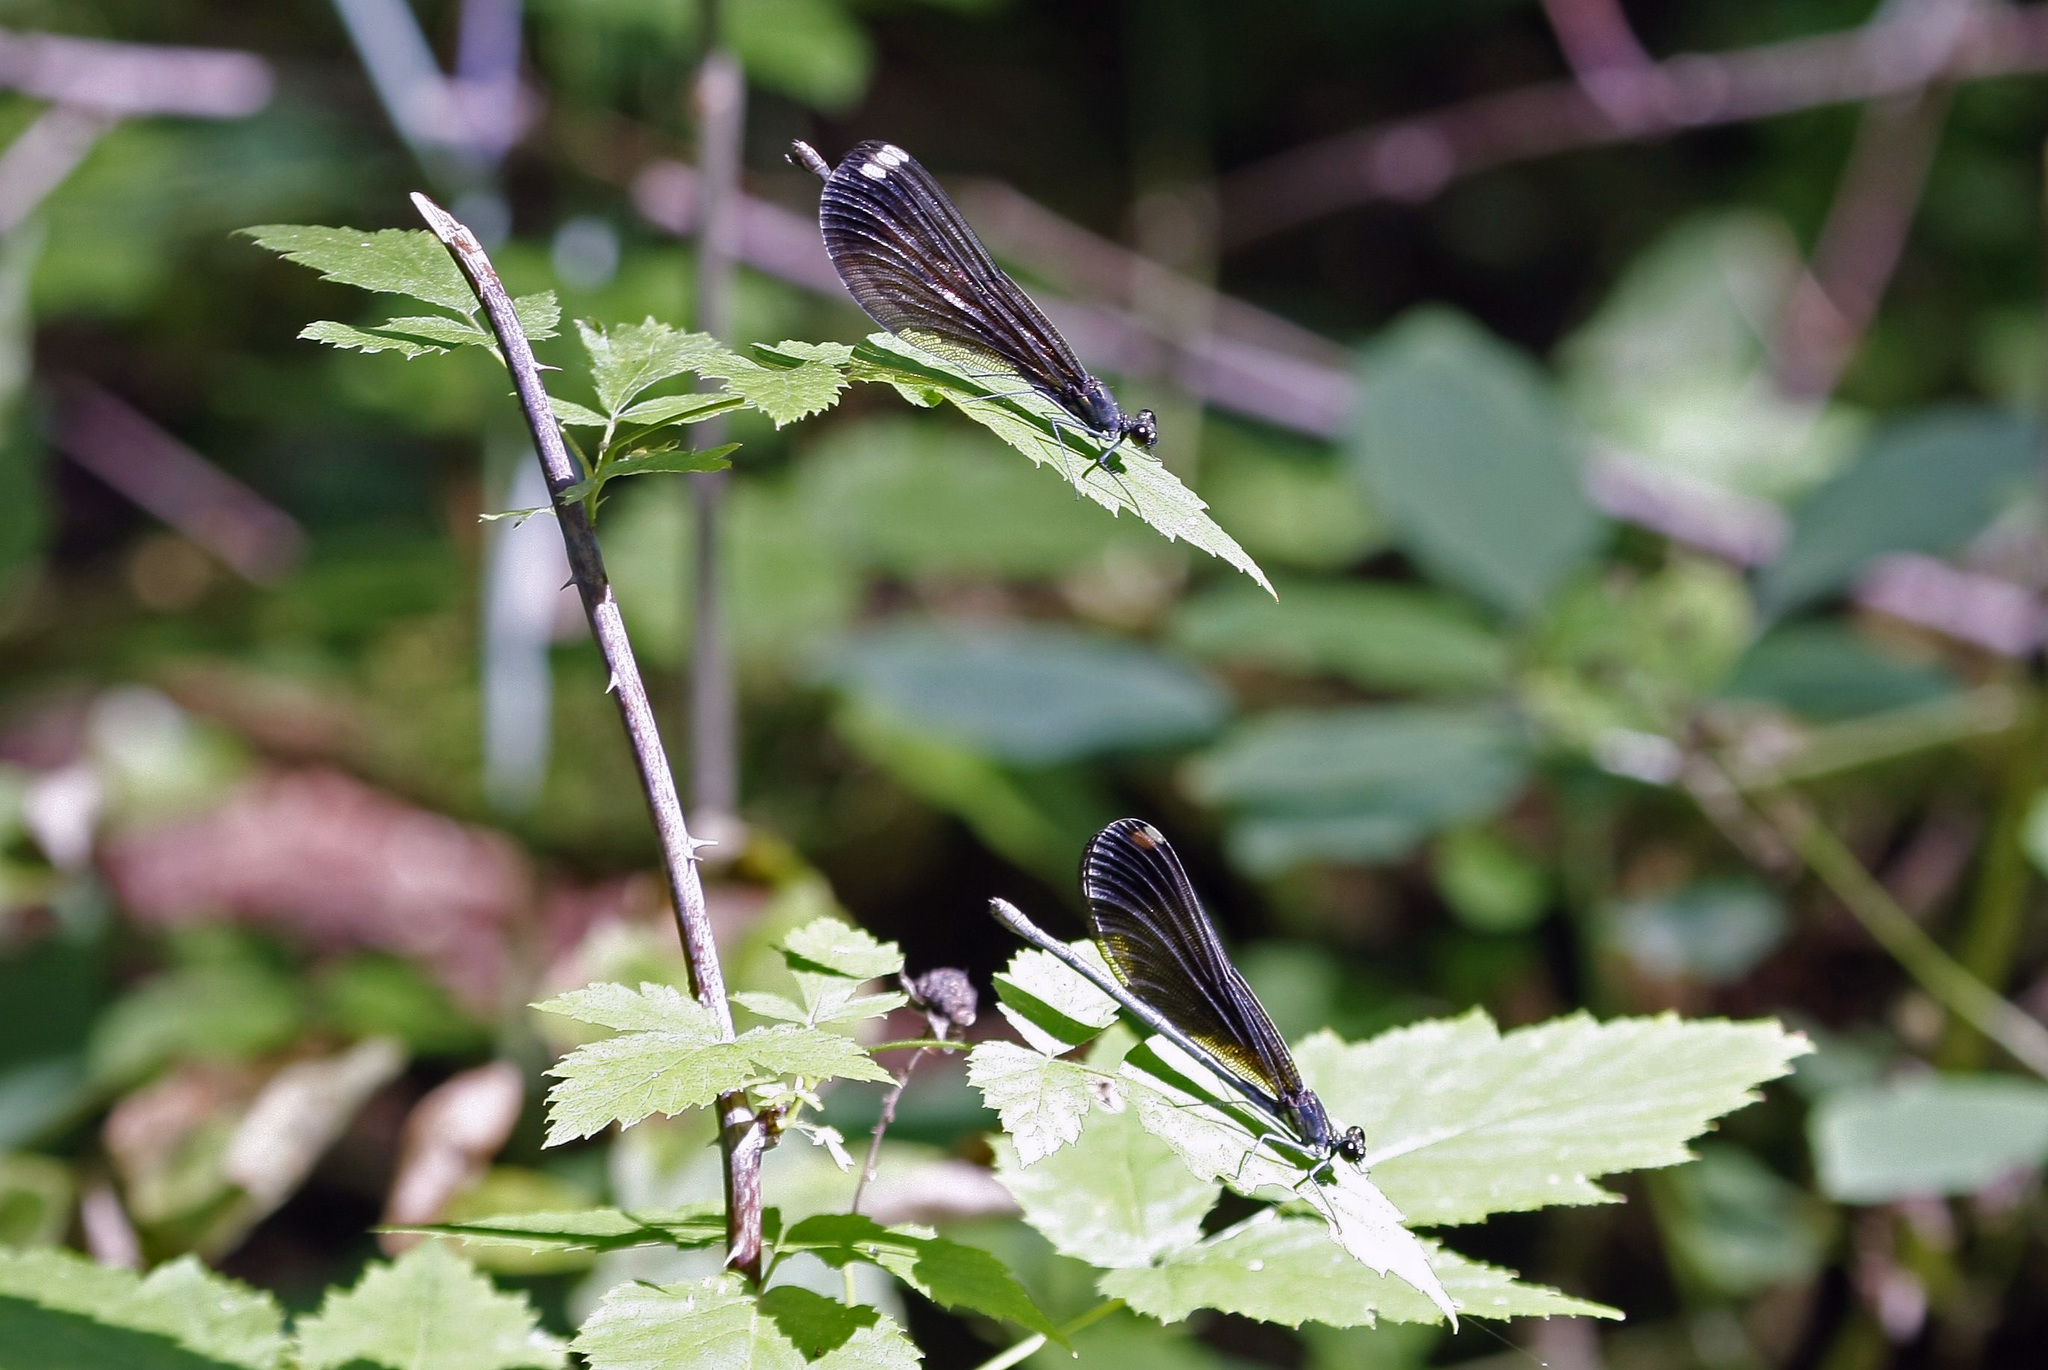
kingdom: Animalia
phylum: Arthropoda
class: Insecta
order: Odonata
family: Calopterygidae
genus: Calopteryx
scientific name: Calopteryx maculata
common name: Ebony jewelwing
